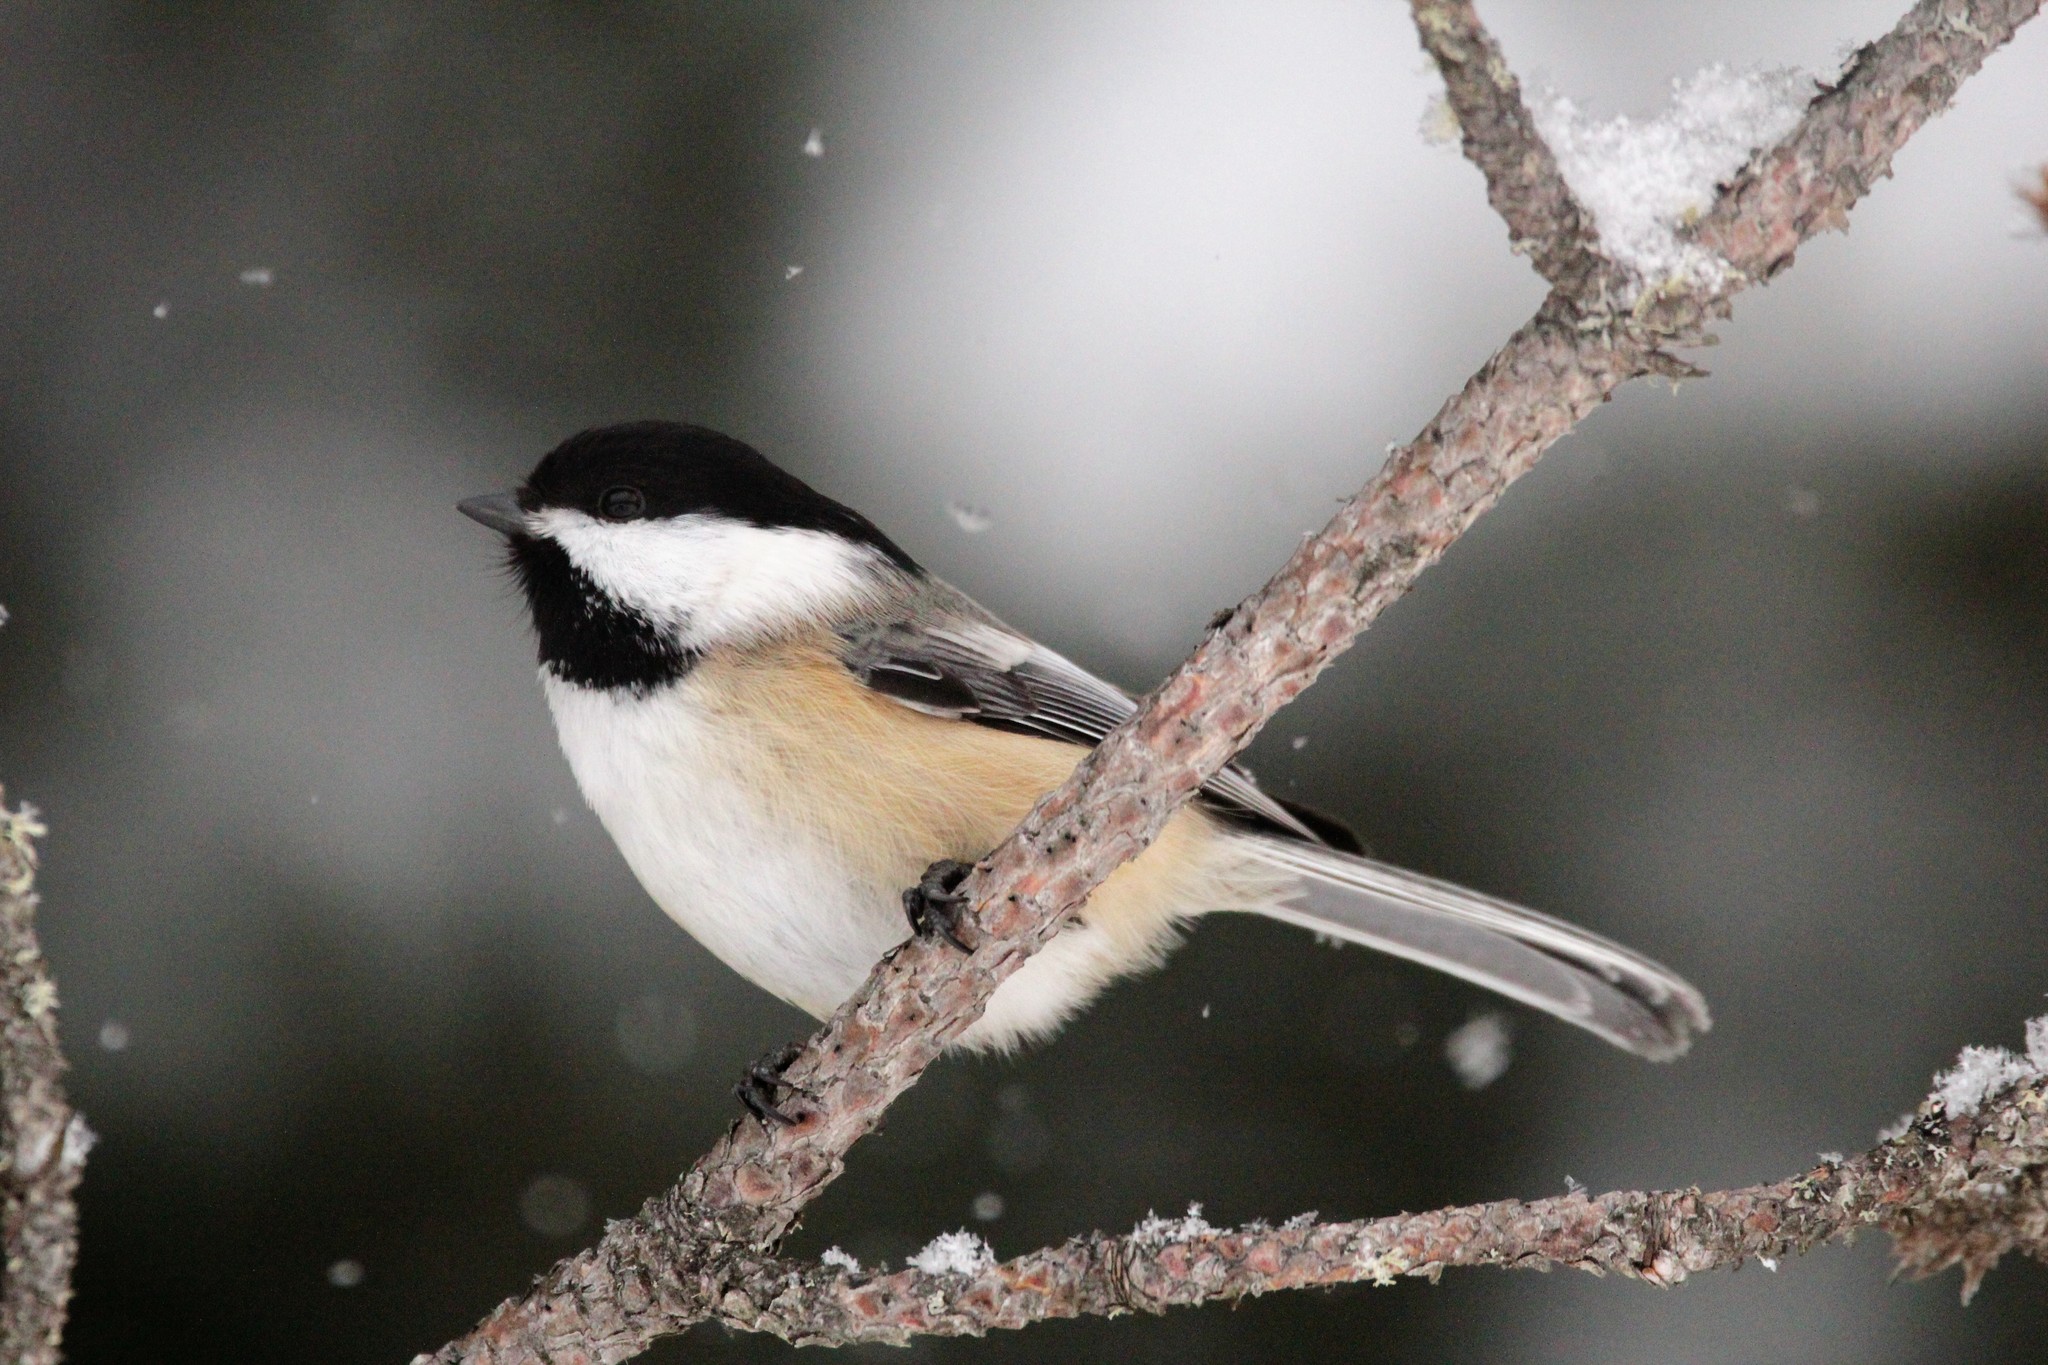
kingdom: Animalia
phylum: Chordata
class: Aves
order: Passeriformes
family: Paridae
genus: Poecile
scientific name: Poecile atricapillus
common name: Black-capped chickadee
